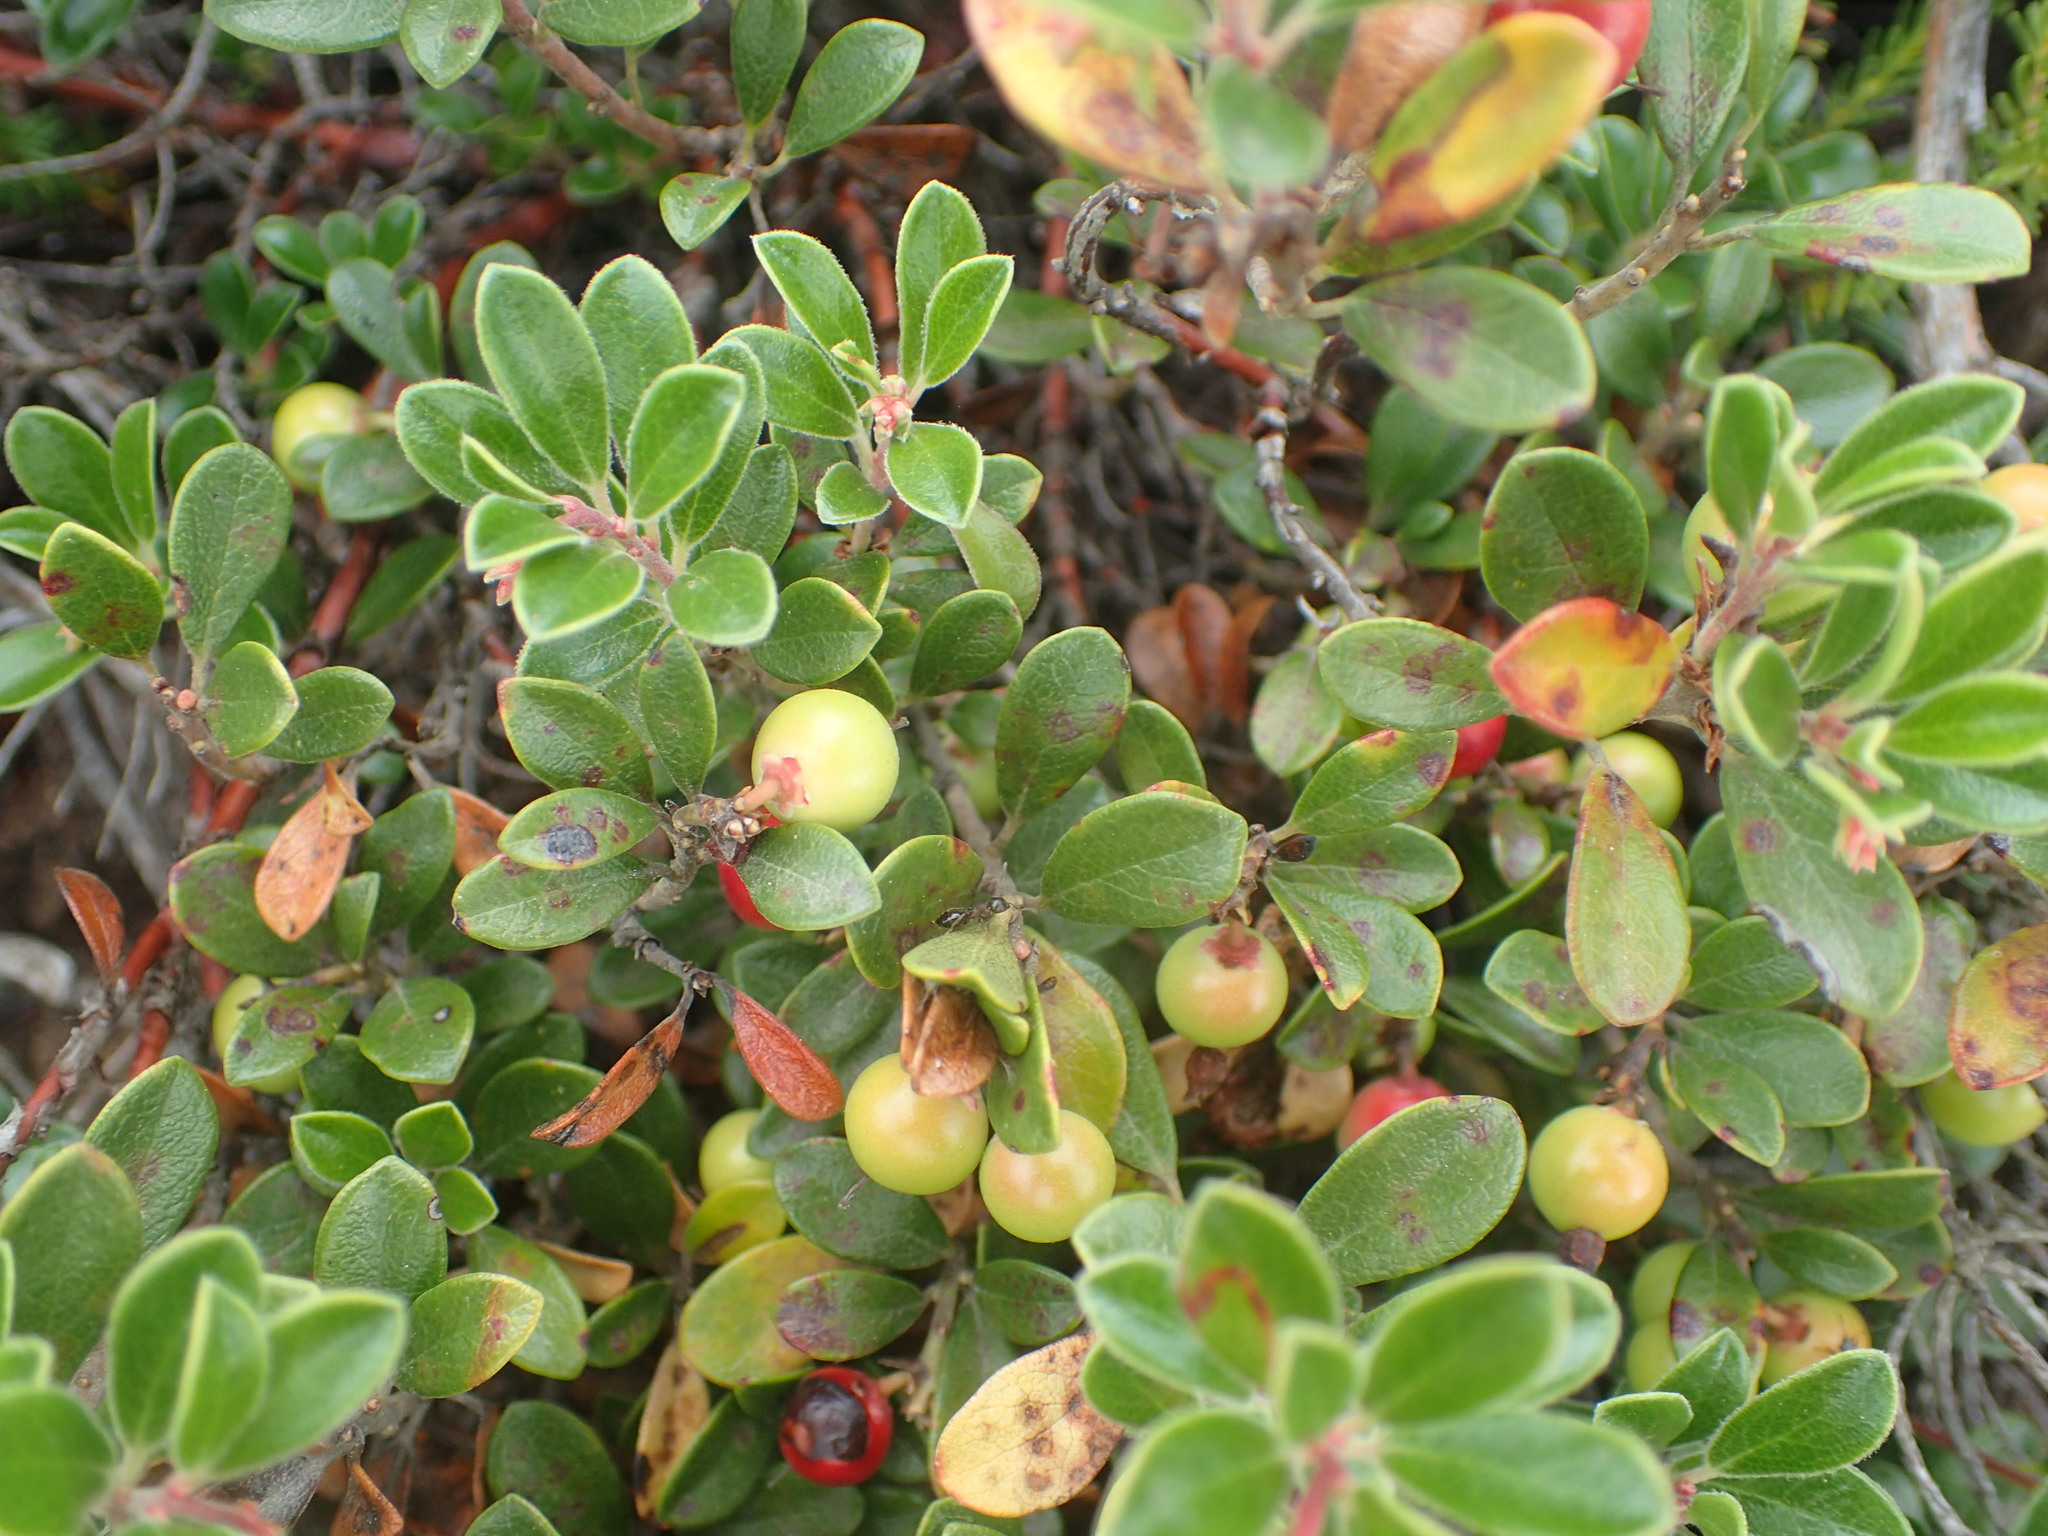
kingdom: Plantae
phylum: Tracheophyta
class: Magnoliopsida
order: Ericales
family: Ericaceae
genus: Arctostaphylos
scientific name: Arctostaphylos uva-ursi
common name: Bearberry
